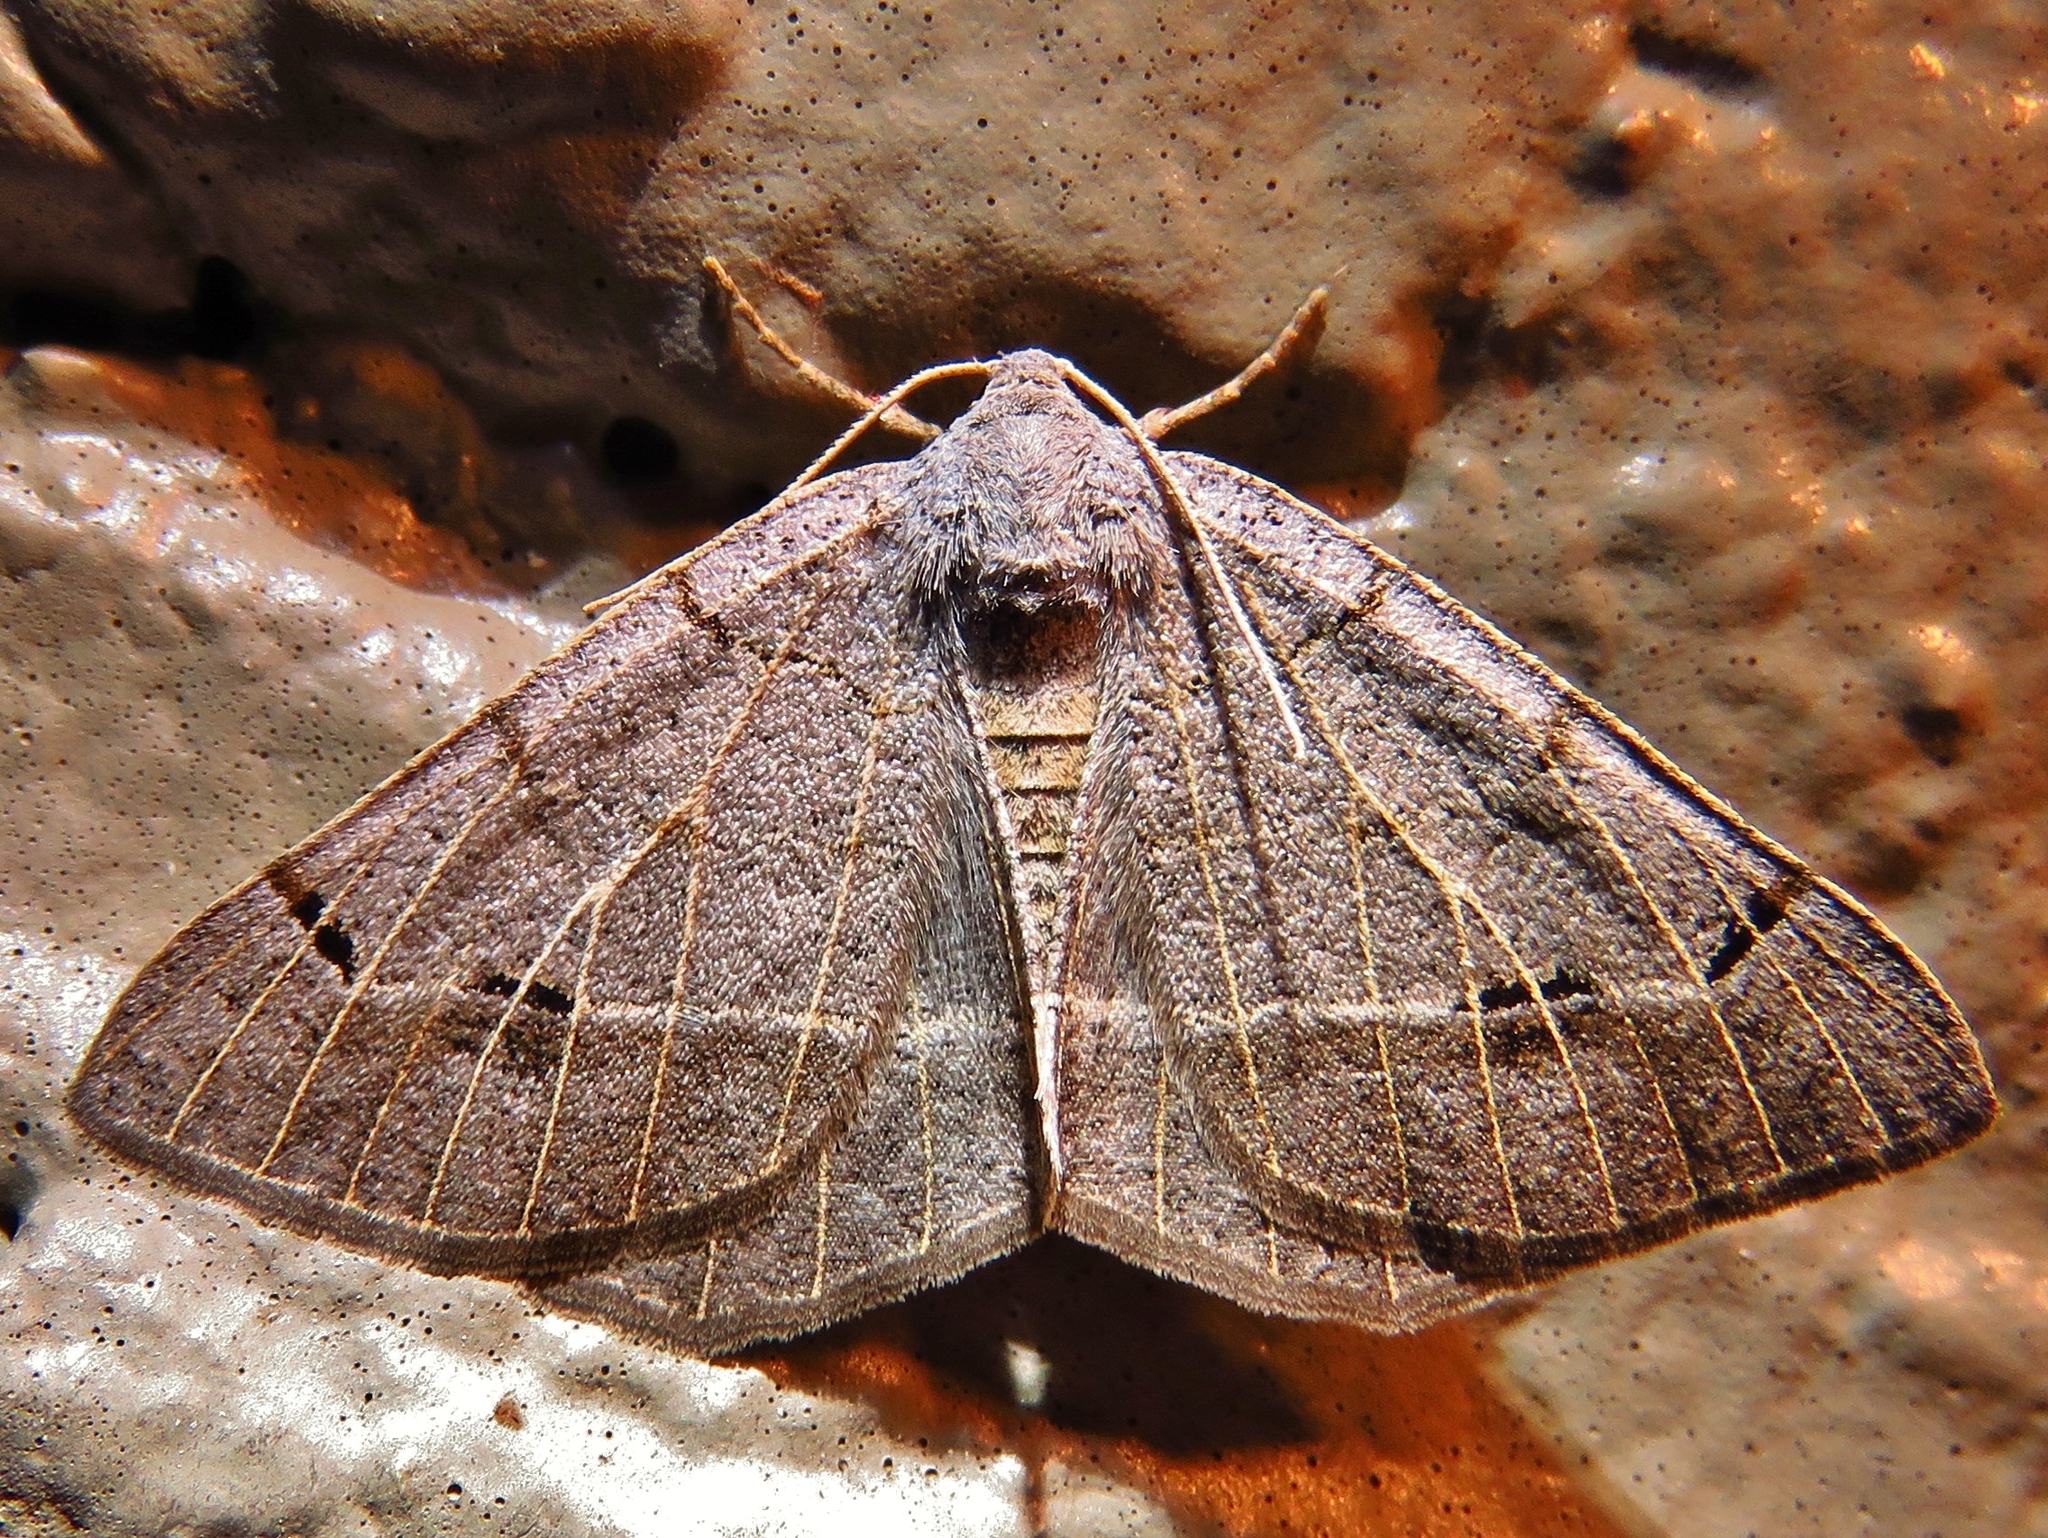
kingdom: Animalia
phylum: Arthropoda
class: Insecta
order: Lepidoptera
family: Geometridae
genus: Isturgia
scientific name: Isturgia dislocaria
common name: Pale-viened enconista
